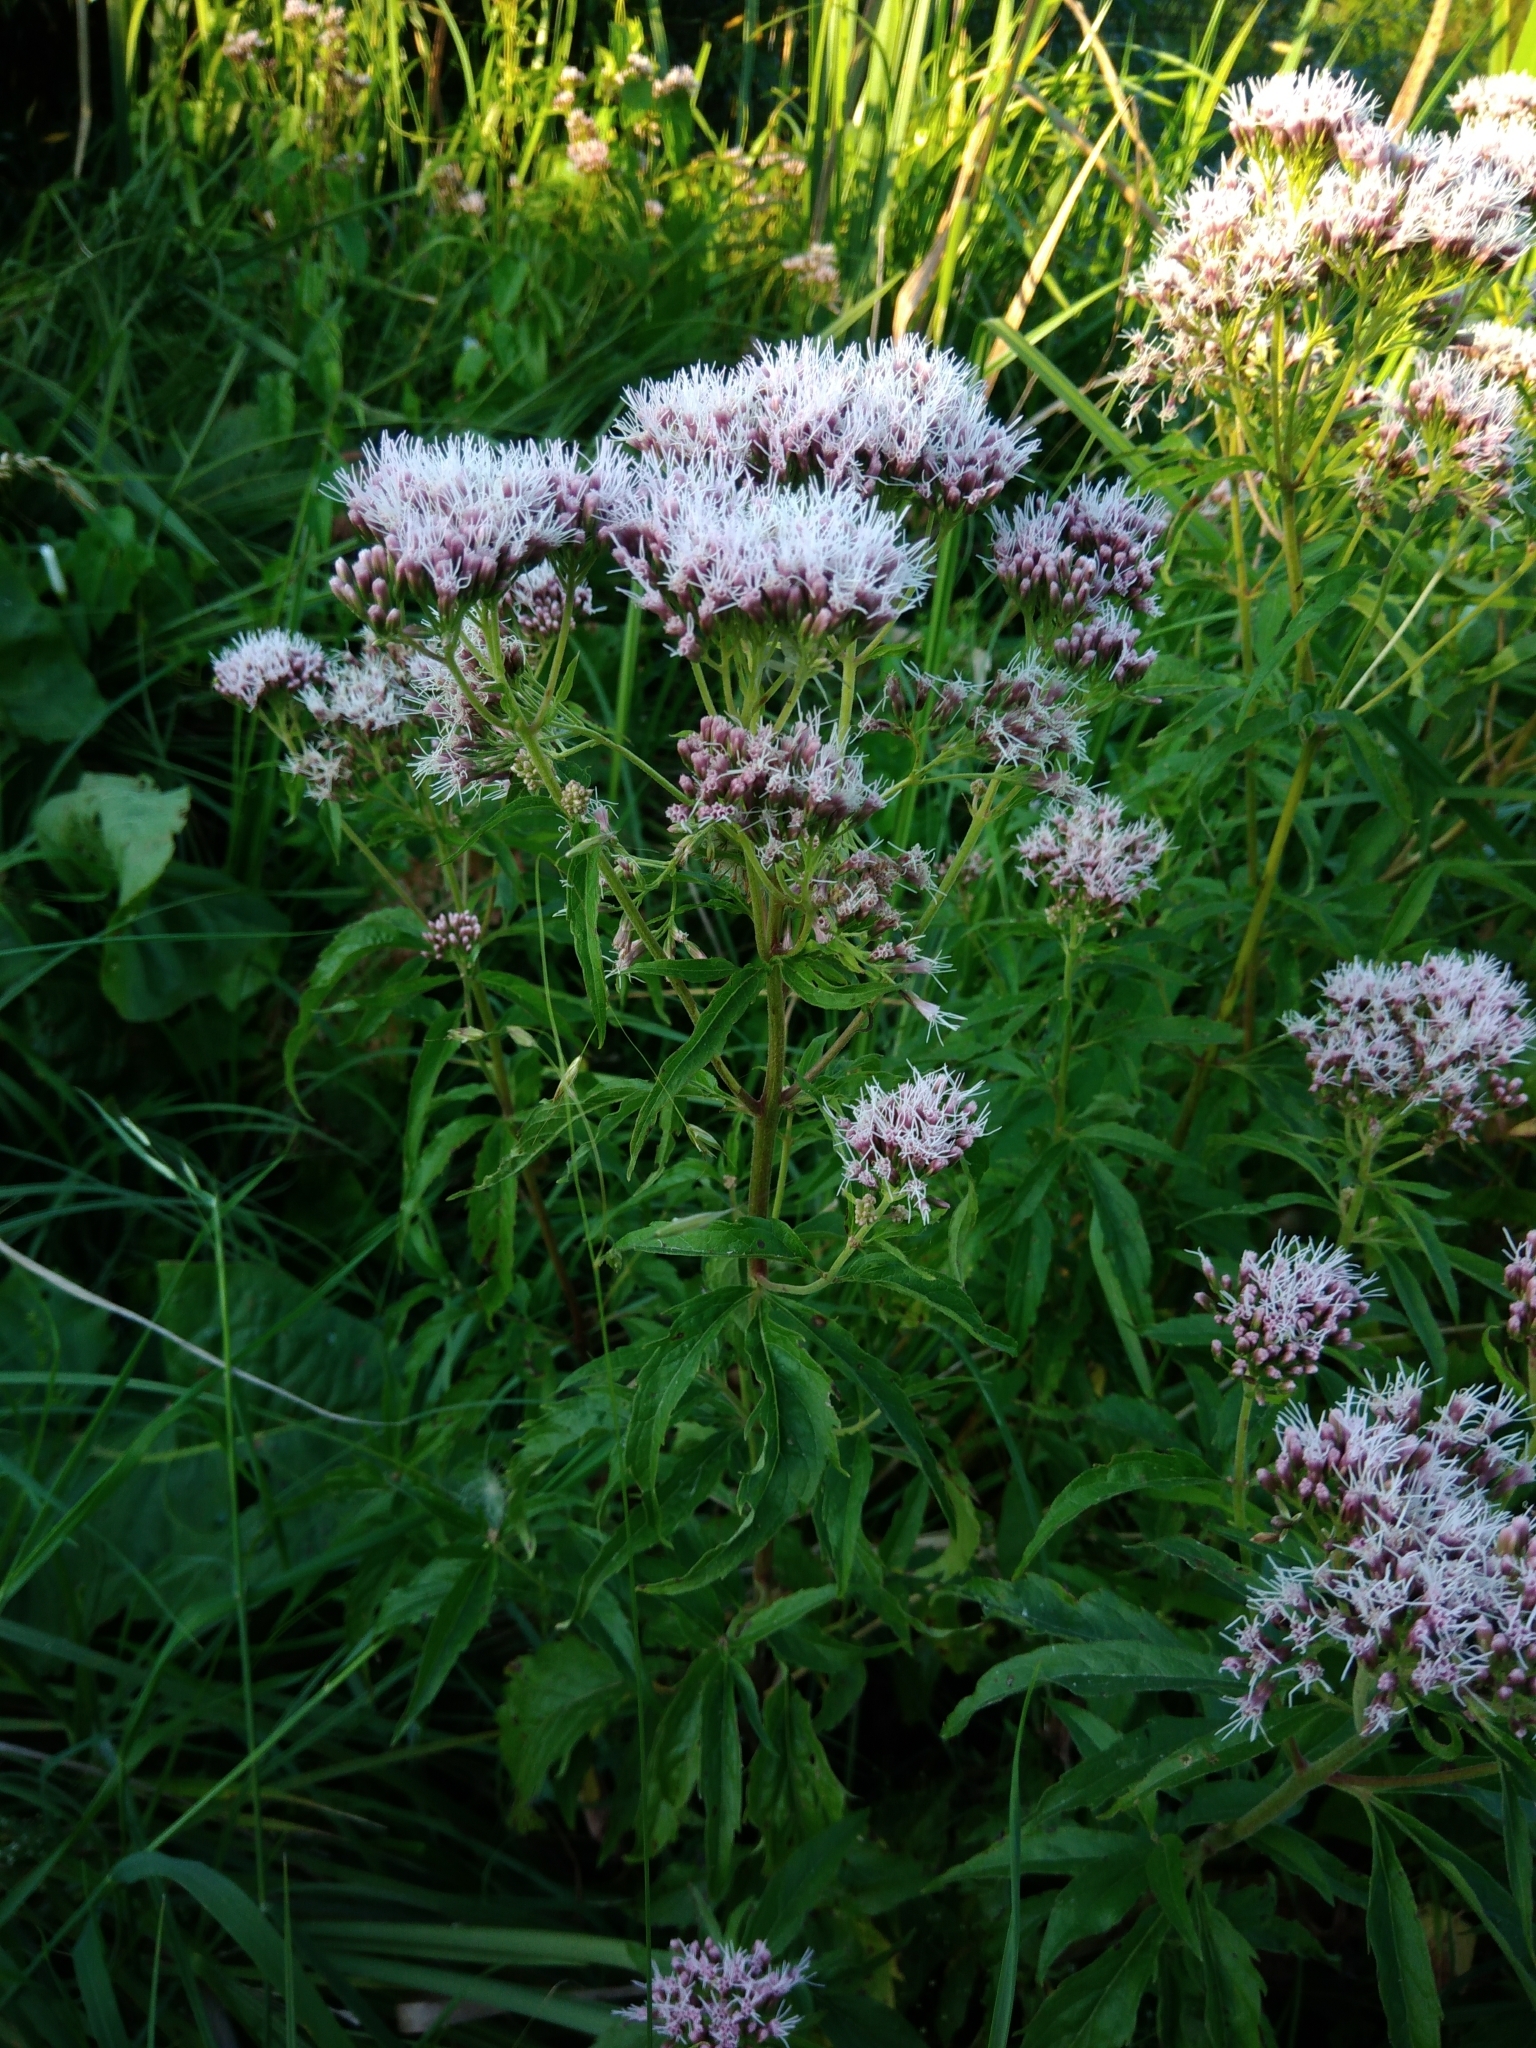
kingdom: Plantae
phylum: Tracheophyta
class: Magnoliopsida
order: Asterales
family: Asteraceae
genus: Eupatorium
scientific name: Eupatorium cannabinum
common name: Hemp-agrimony
